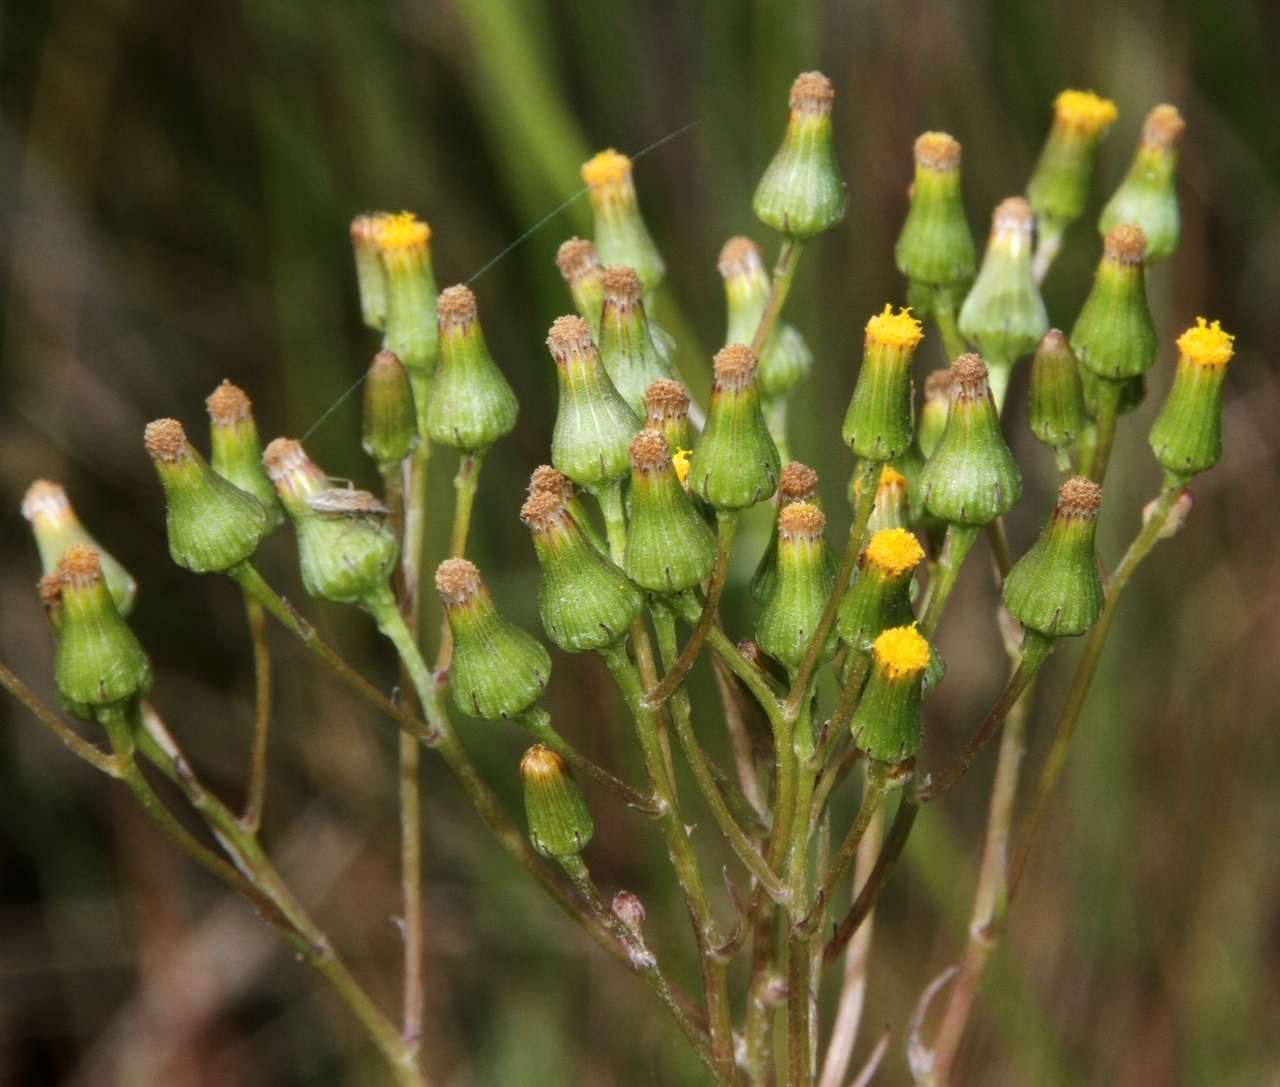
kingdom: Plantae
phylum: Tracheophyta
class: Magnoliopsida
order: Asterales
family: Asteraceae
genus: Senecio
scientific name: Senecio psilocarpus
